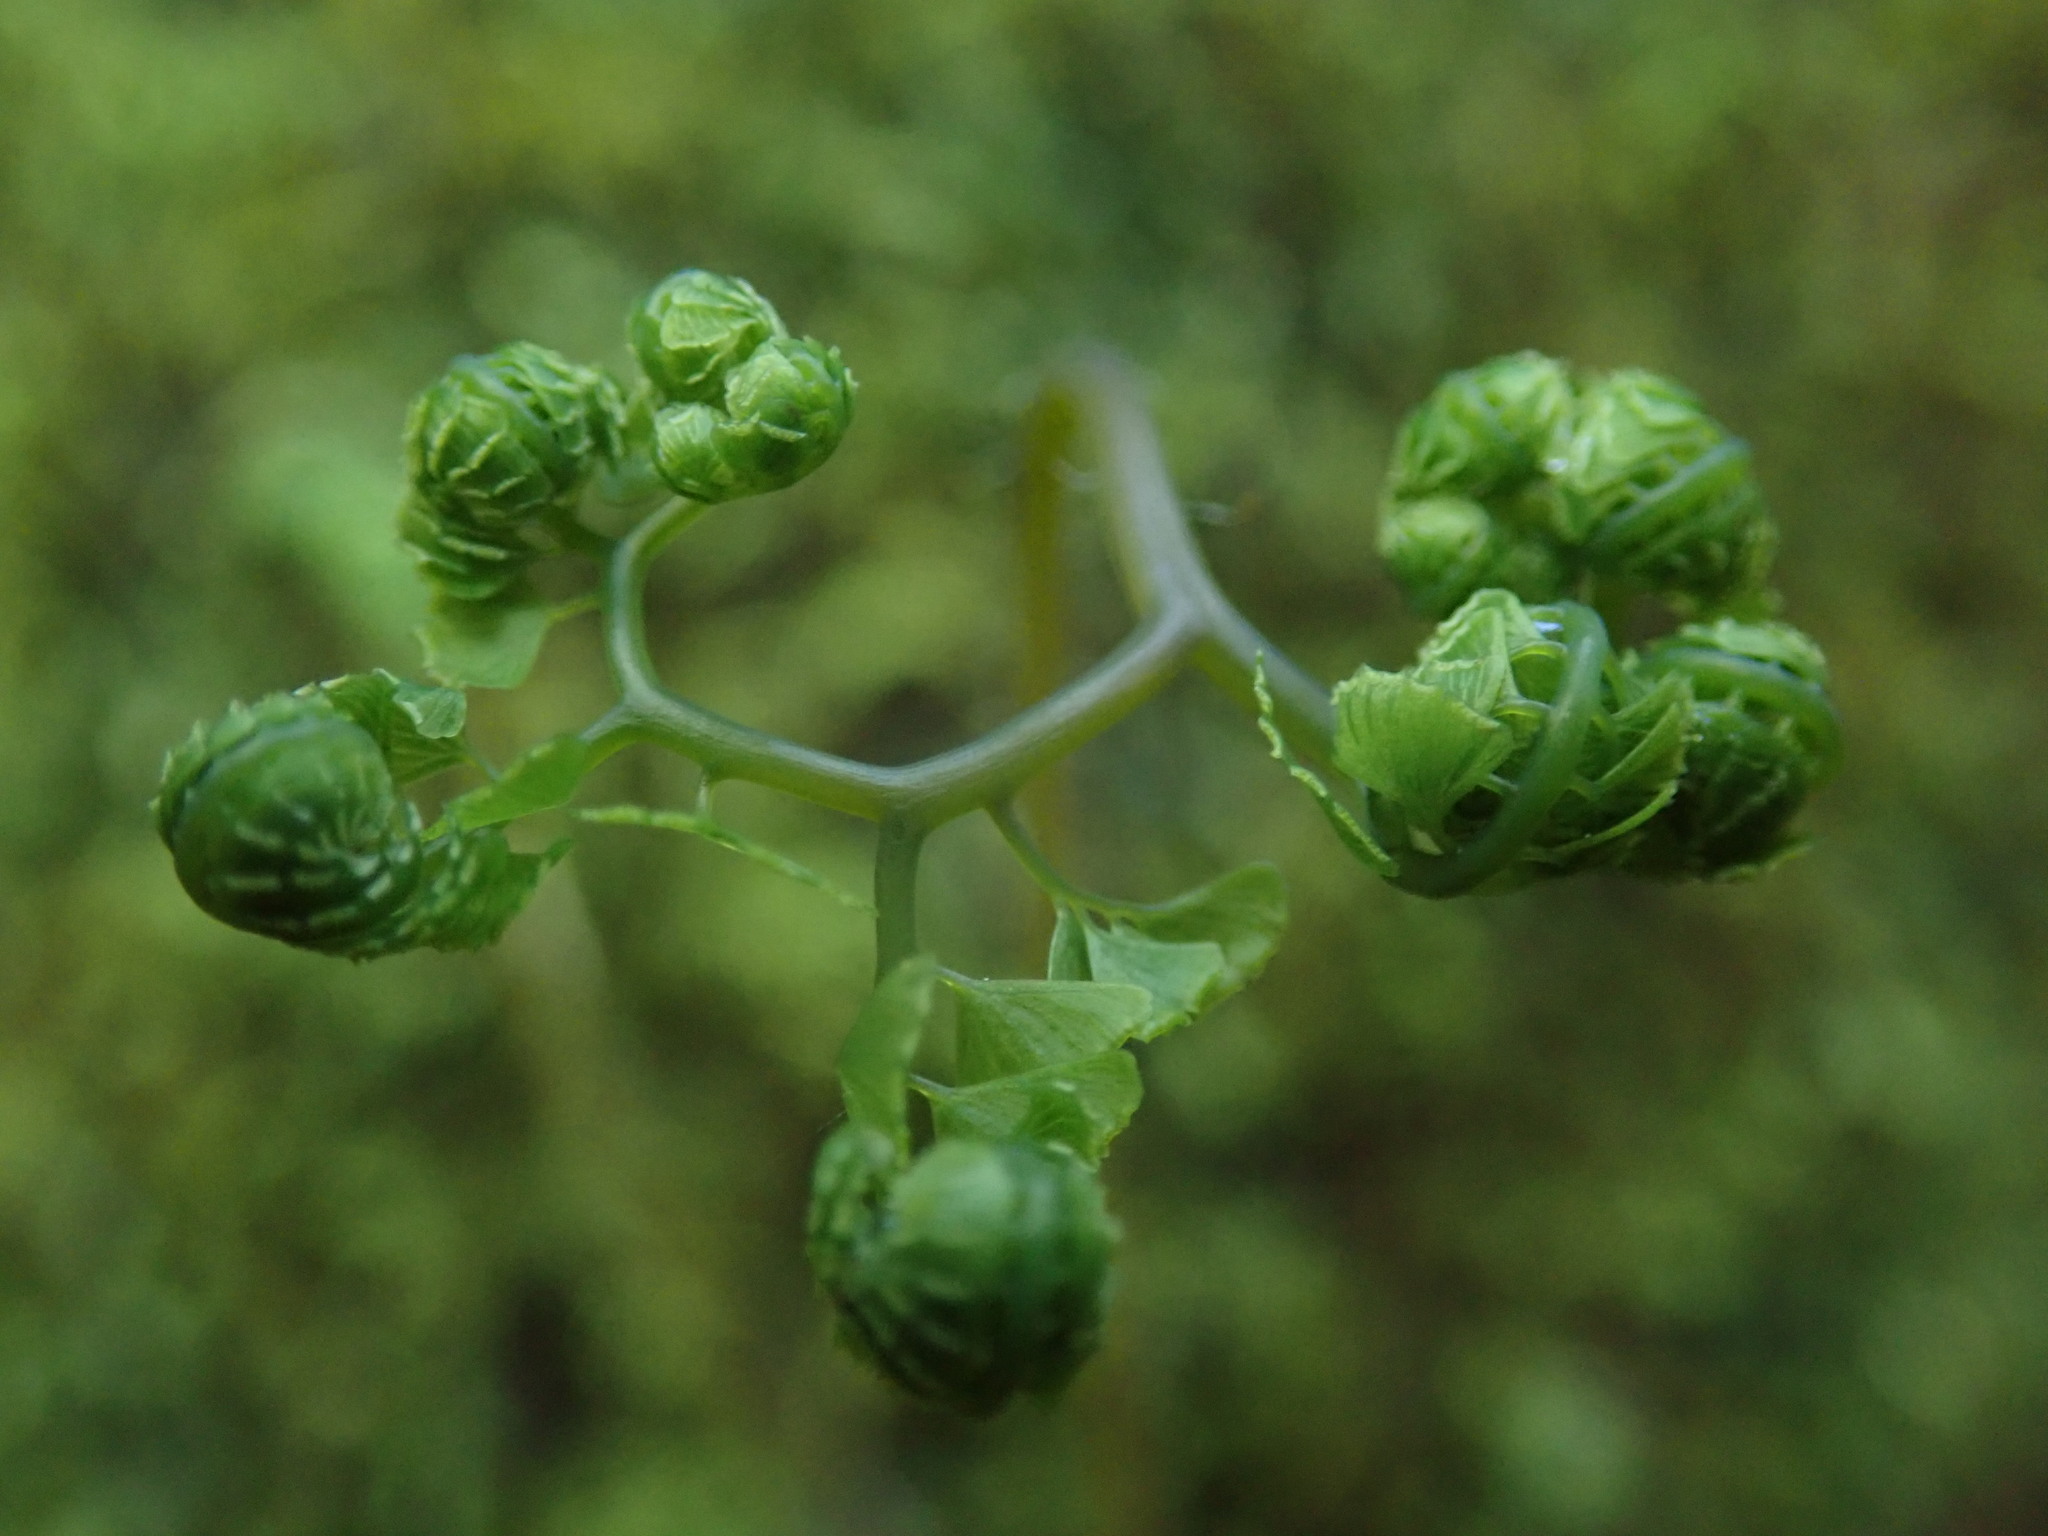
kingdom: Plantae
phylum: Tracheophyta
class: Polypodiopsida
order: Polypodiales
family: Pteridaceae
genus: Adiantum
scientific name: Adiantum aleuticum
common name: Aleutian maidenhair fern
